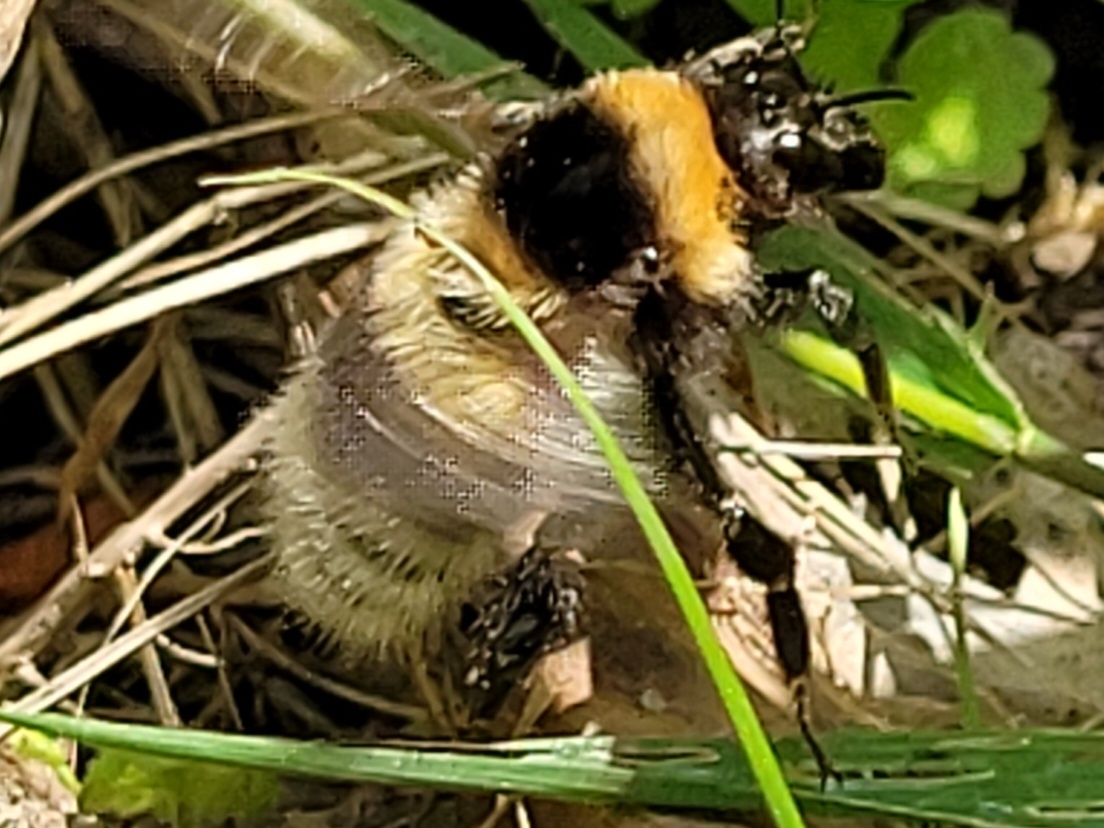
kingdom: Animalia
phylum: Arthropoda
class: Insecta
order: Hymenoptera
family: Apidae
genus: Bombus
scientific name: Bombus hortorum
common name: Garden bumblebee
